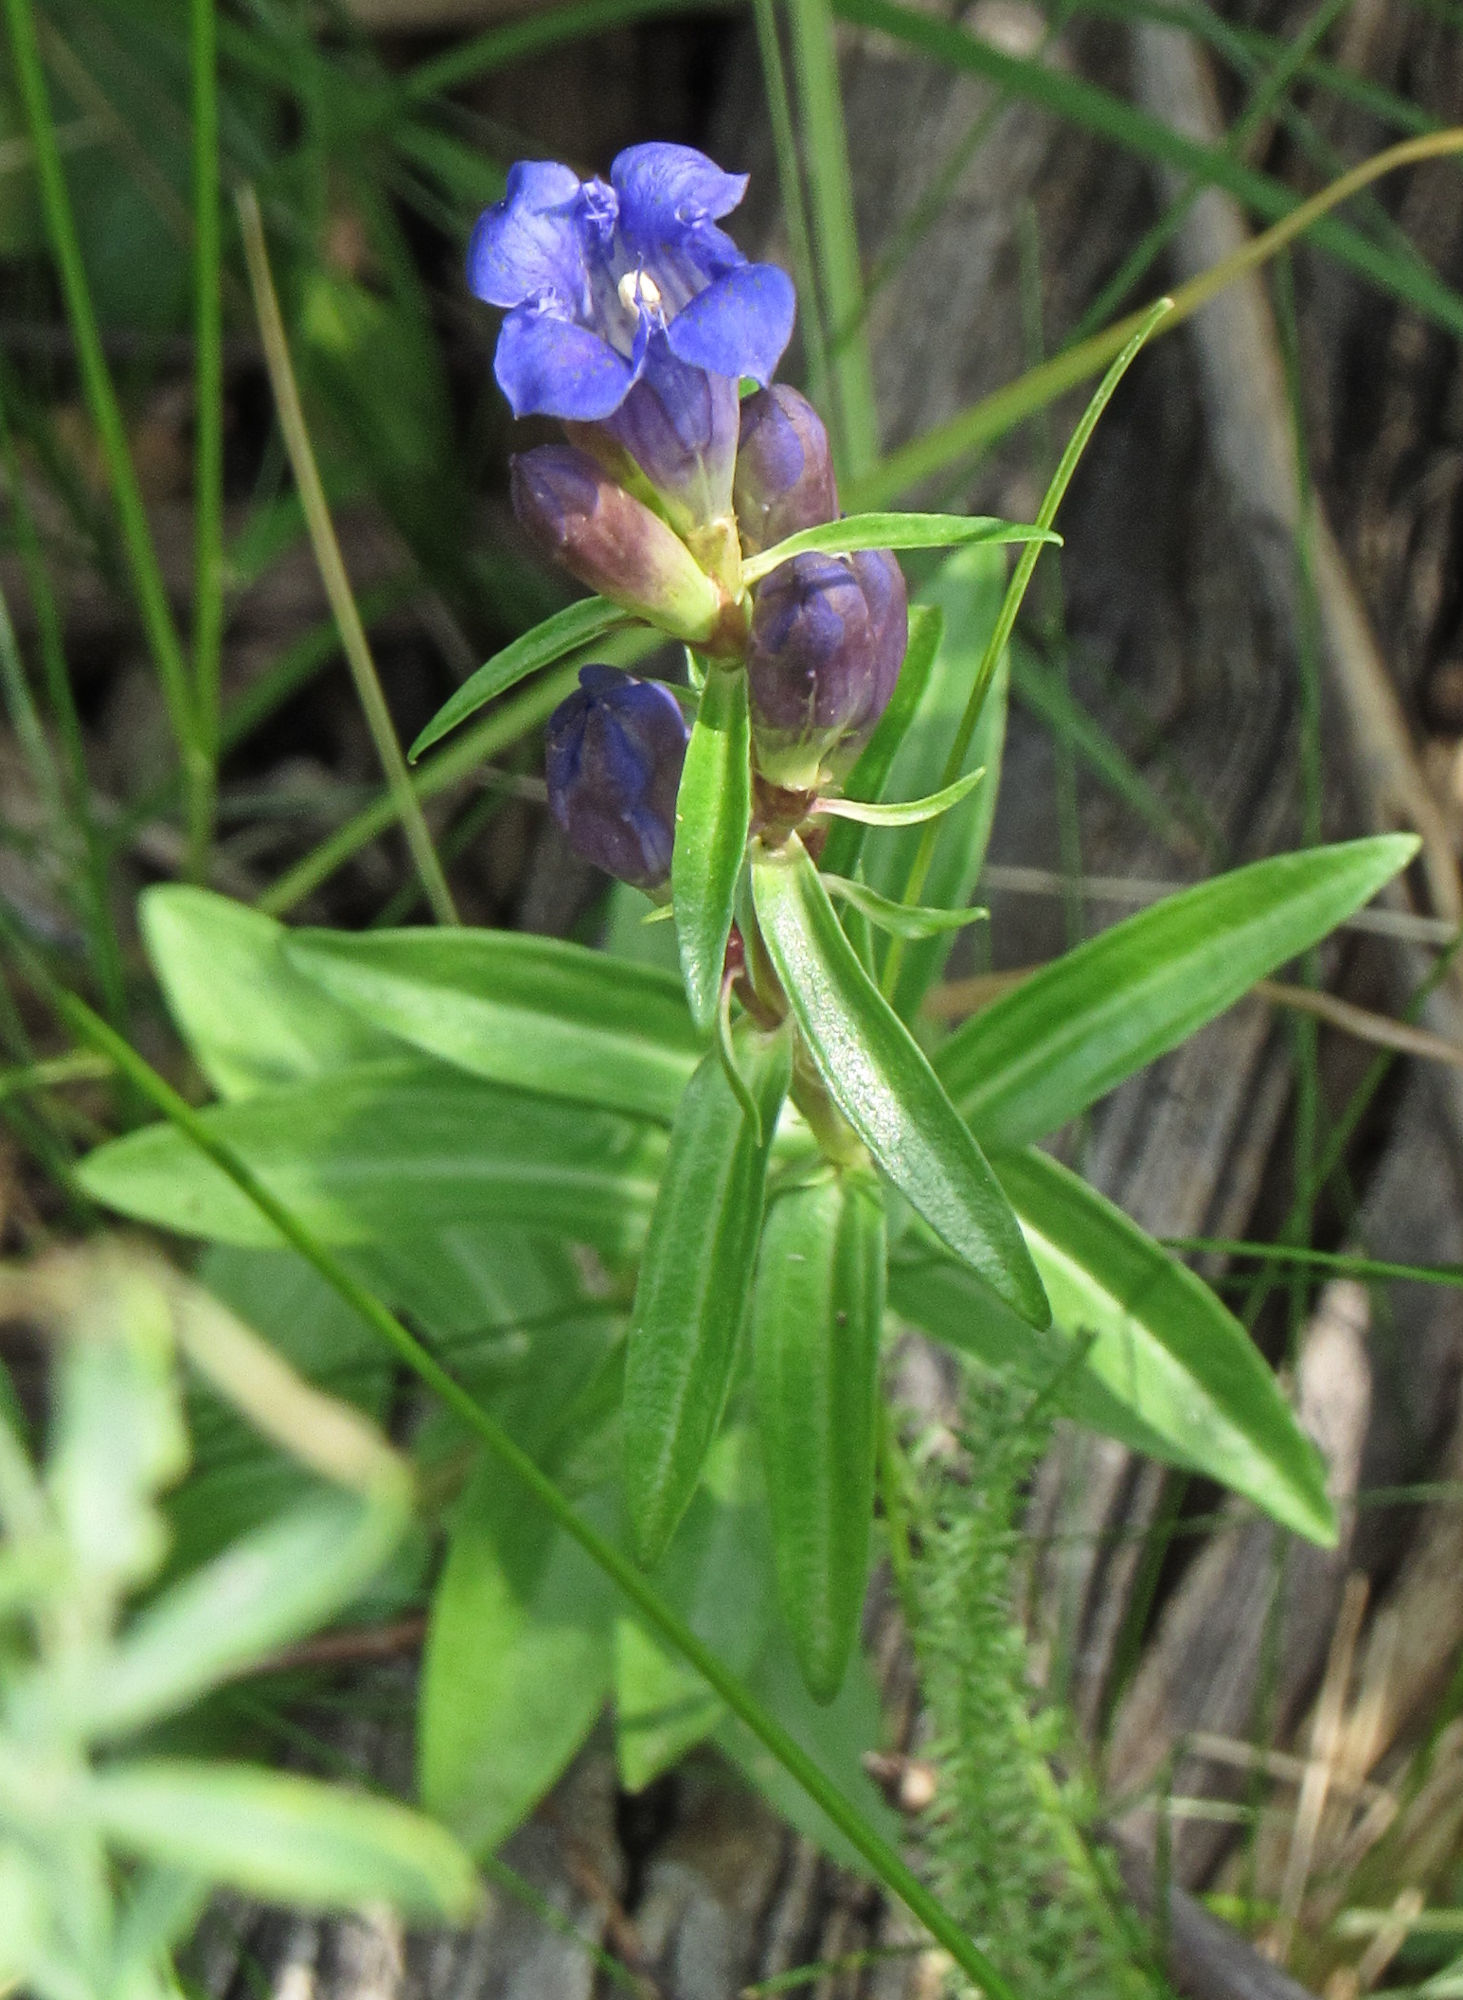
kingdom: Plantae
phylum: Tracheophyta
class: Magnoliopsida
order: Gentianales
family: Gentianaceae
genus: Gentiana
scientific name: Gentiana affinis
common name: Rocky mountain gentian
